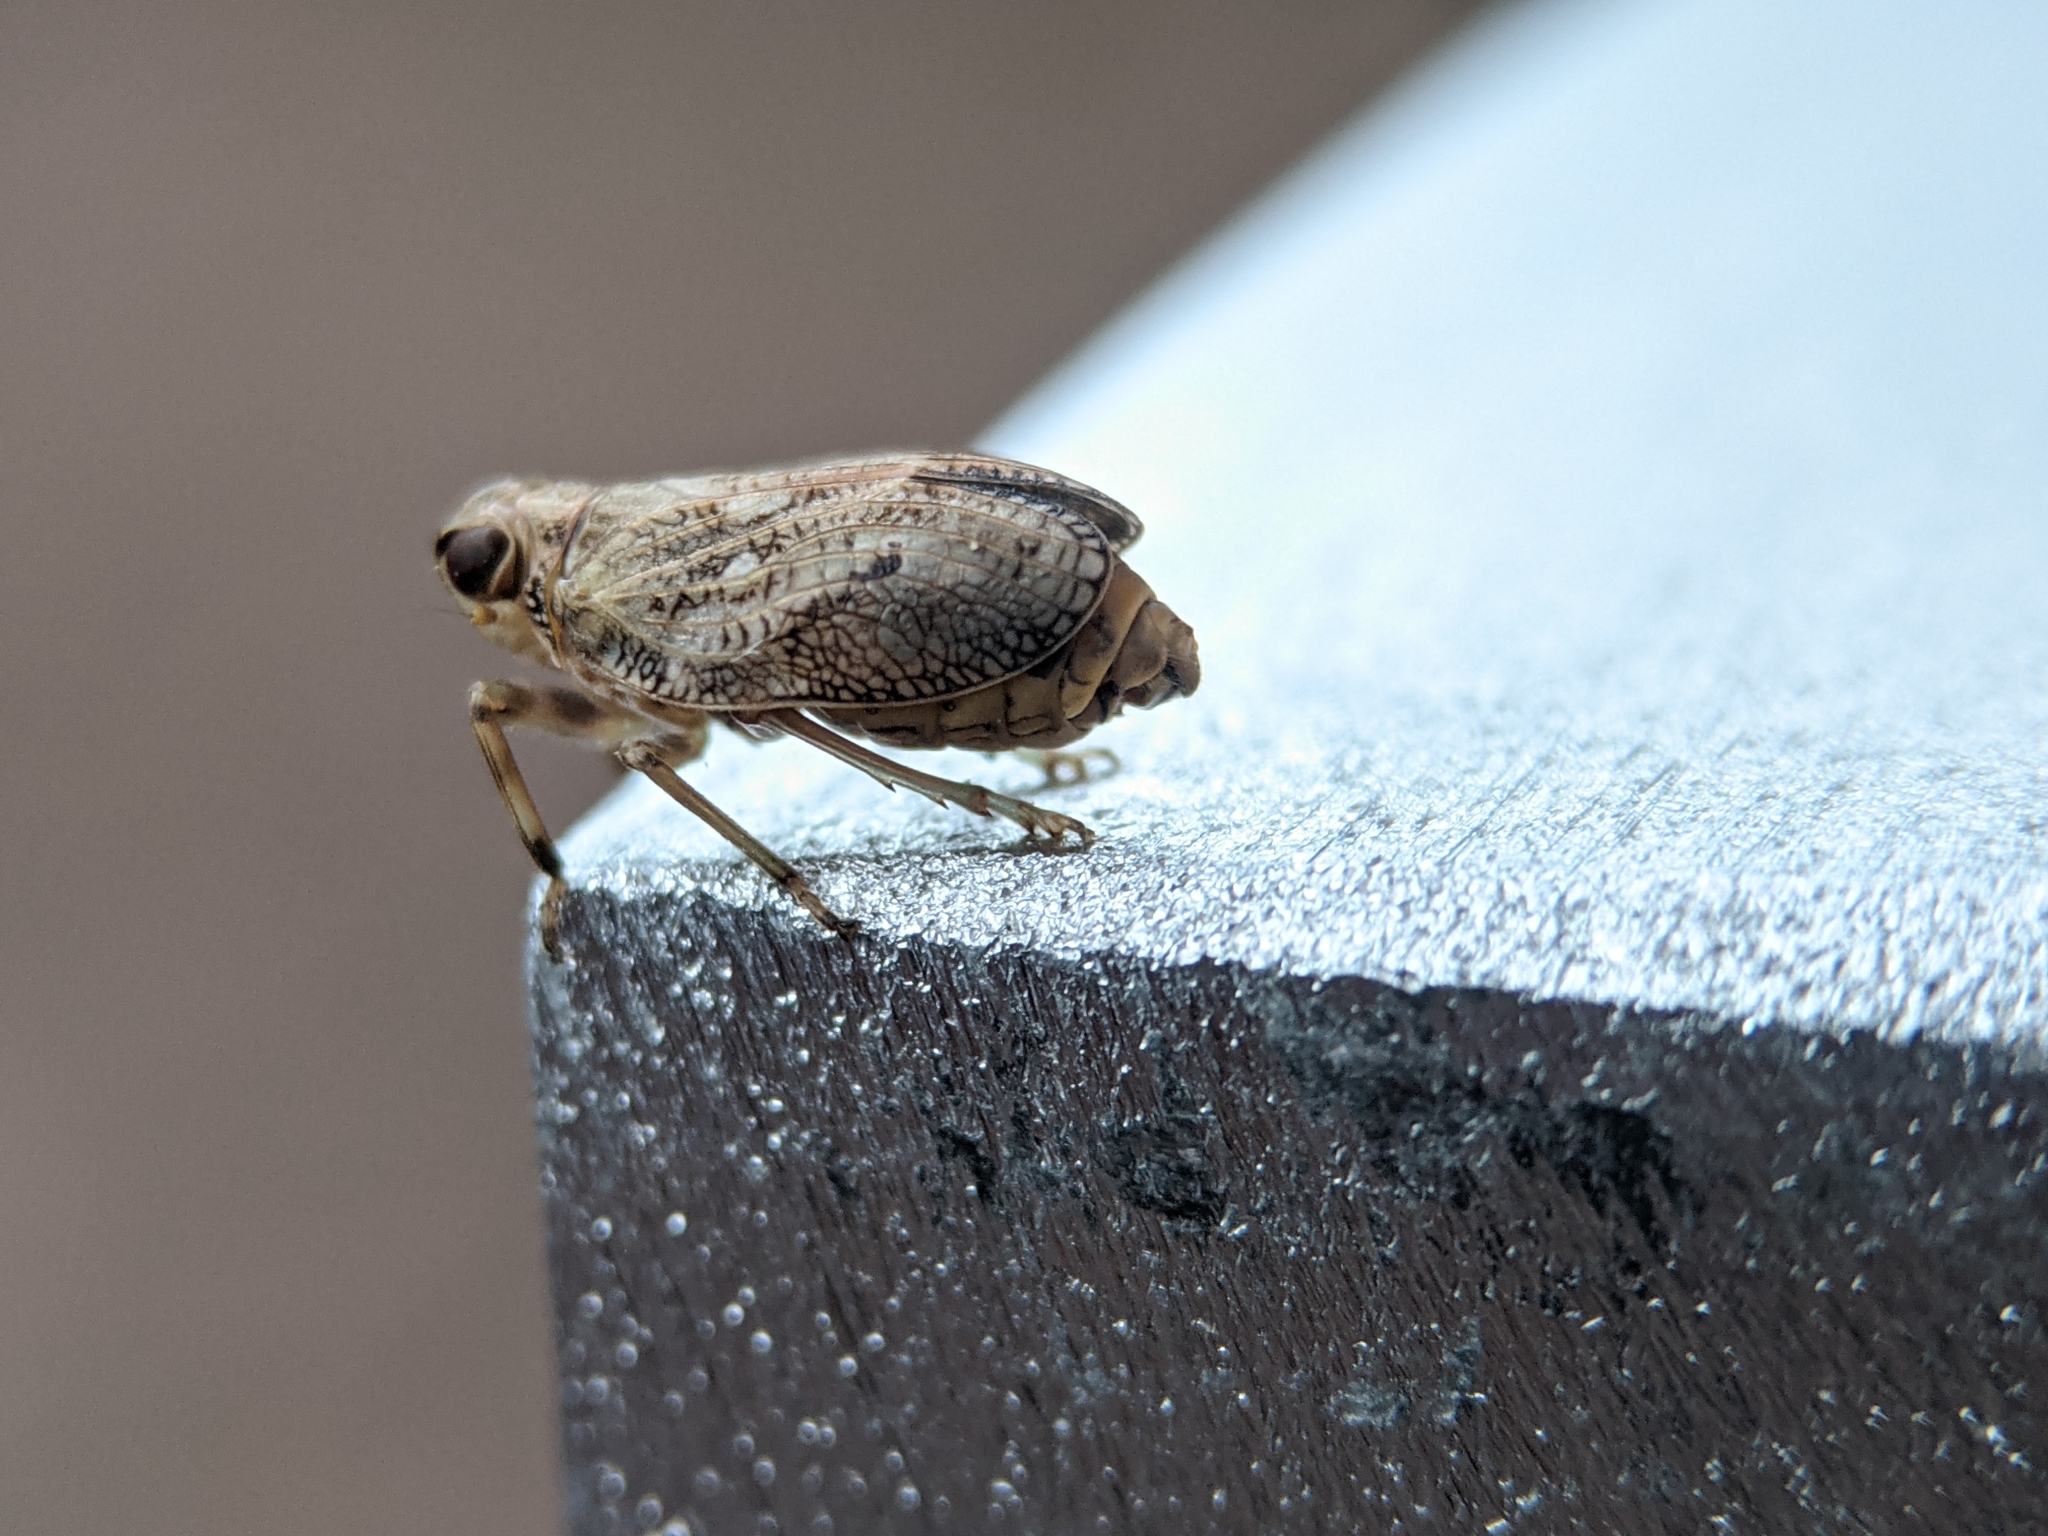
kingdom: Animalia
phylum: Arthropoda
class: Insecta
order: Hemiptera
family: Issidae
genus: Issus
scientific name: Issus coleoptratus
